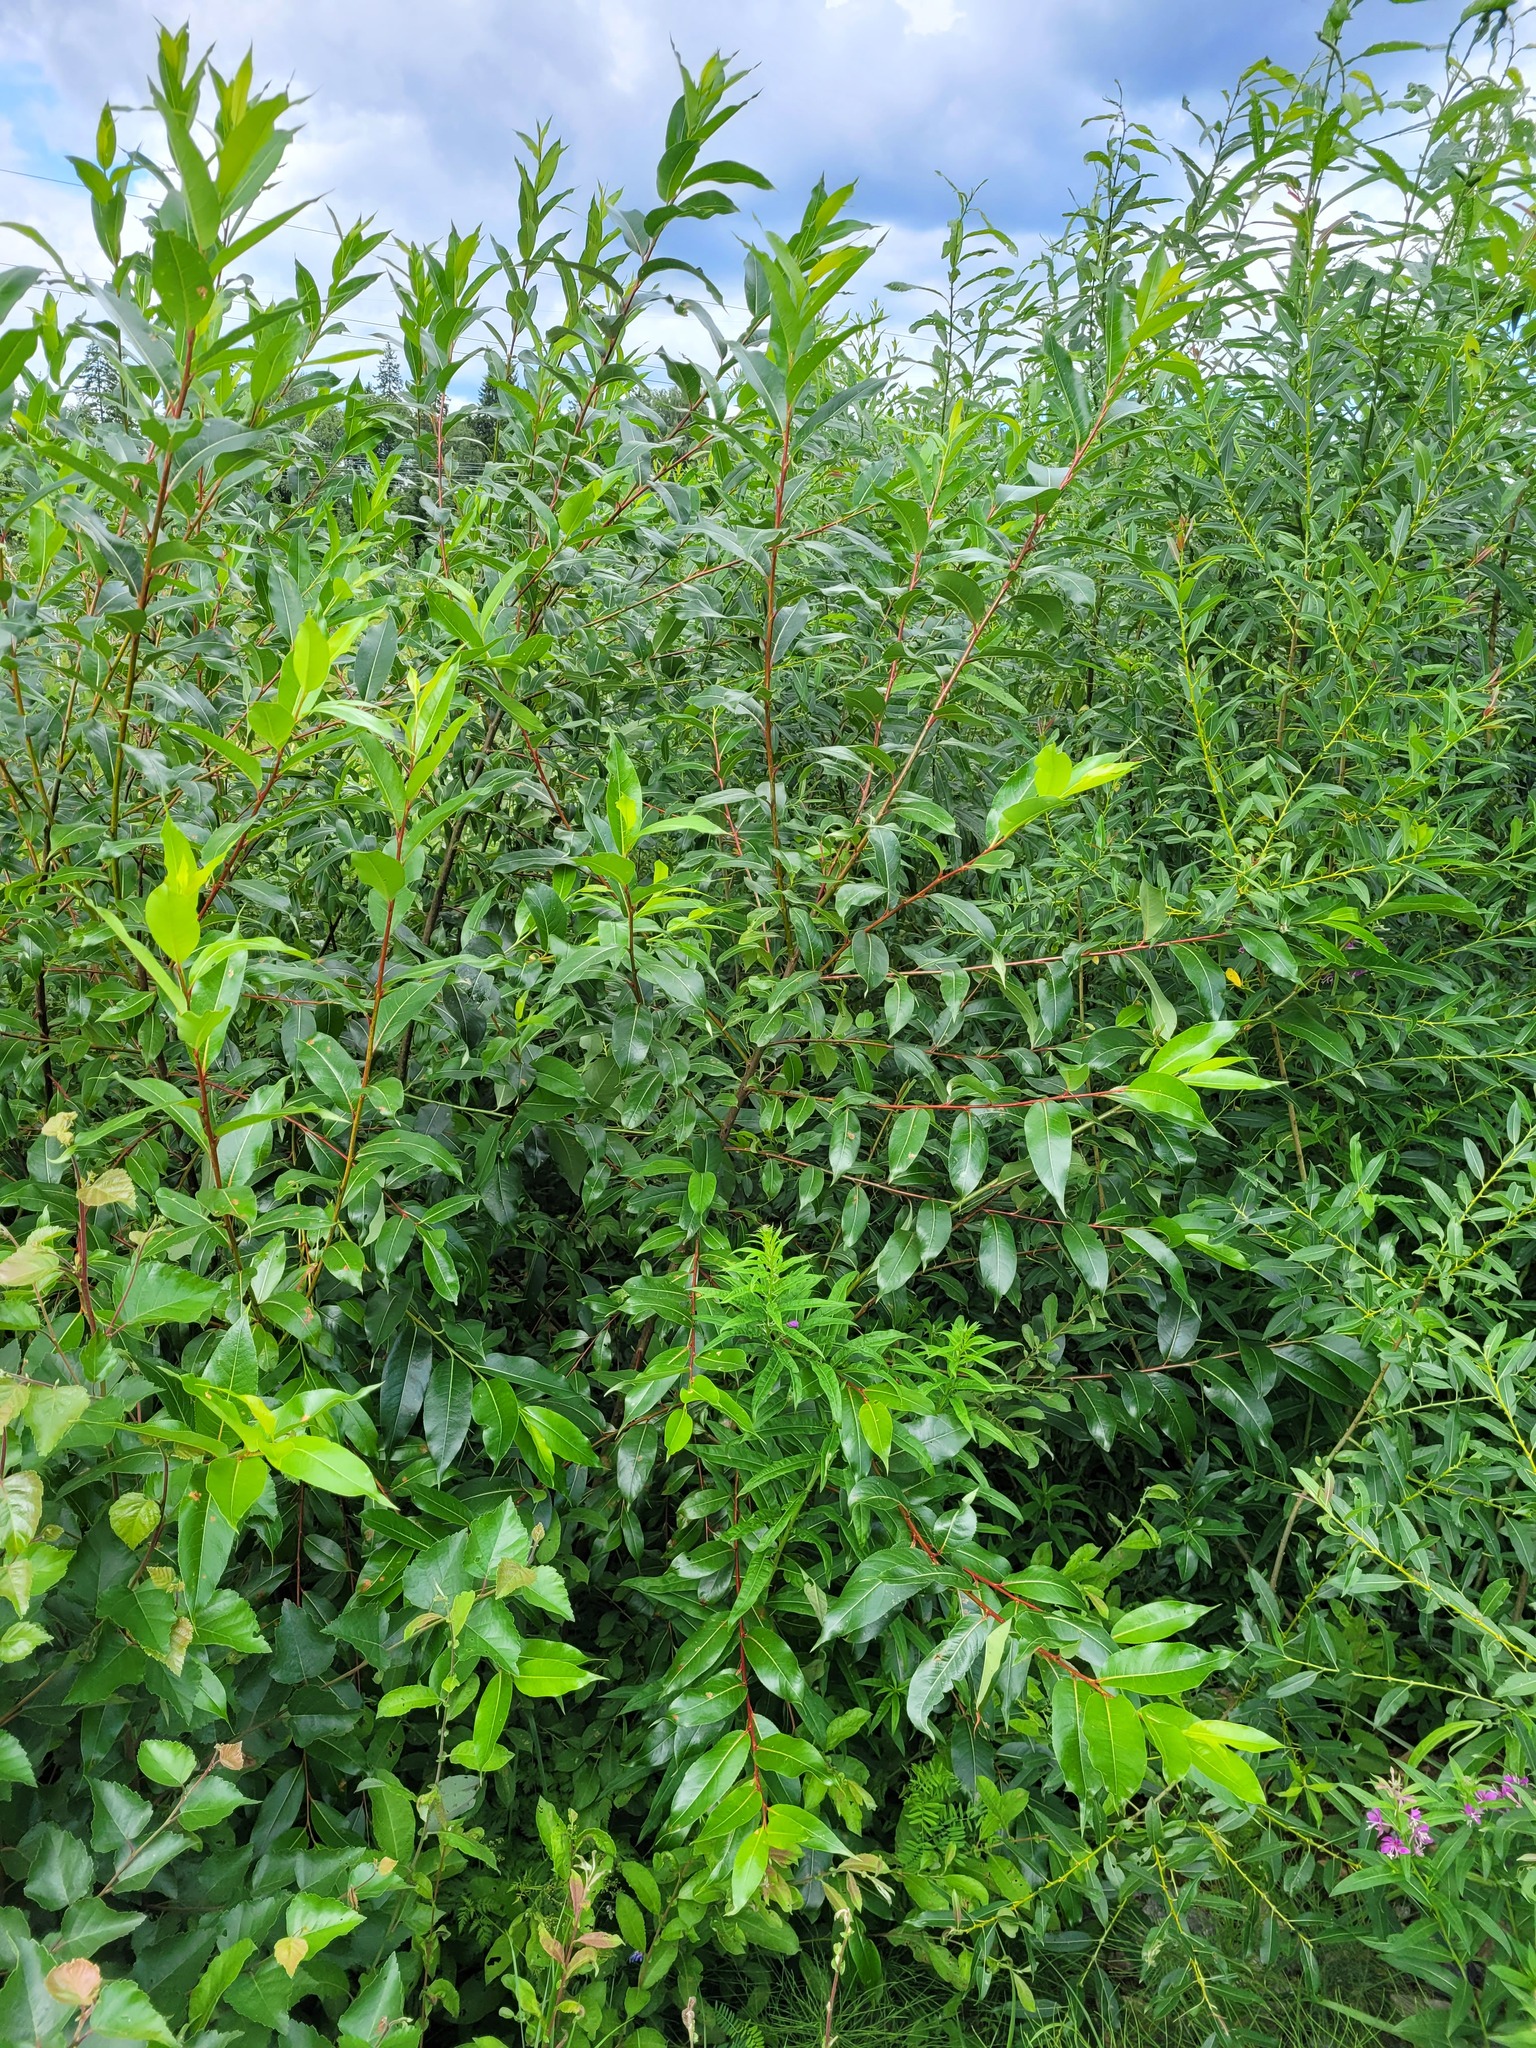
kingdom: Plantae
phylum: Tracheophyta
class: Magnoliopsida
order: Malpighiales
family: Salicaceae
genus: Salix
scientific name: Salix pentandra
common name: Bay willow
